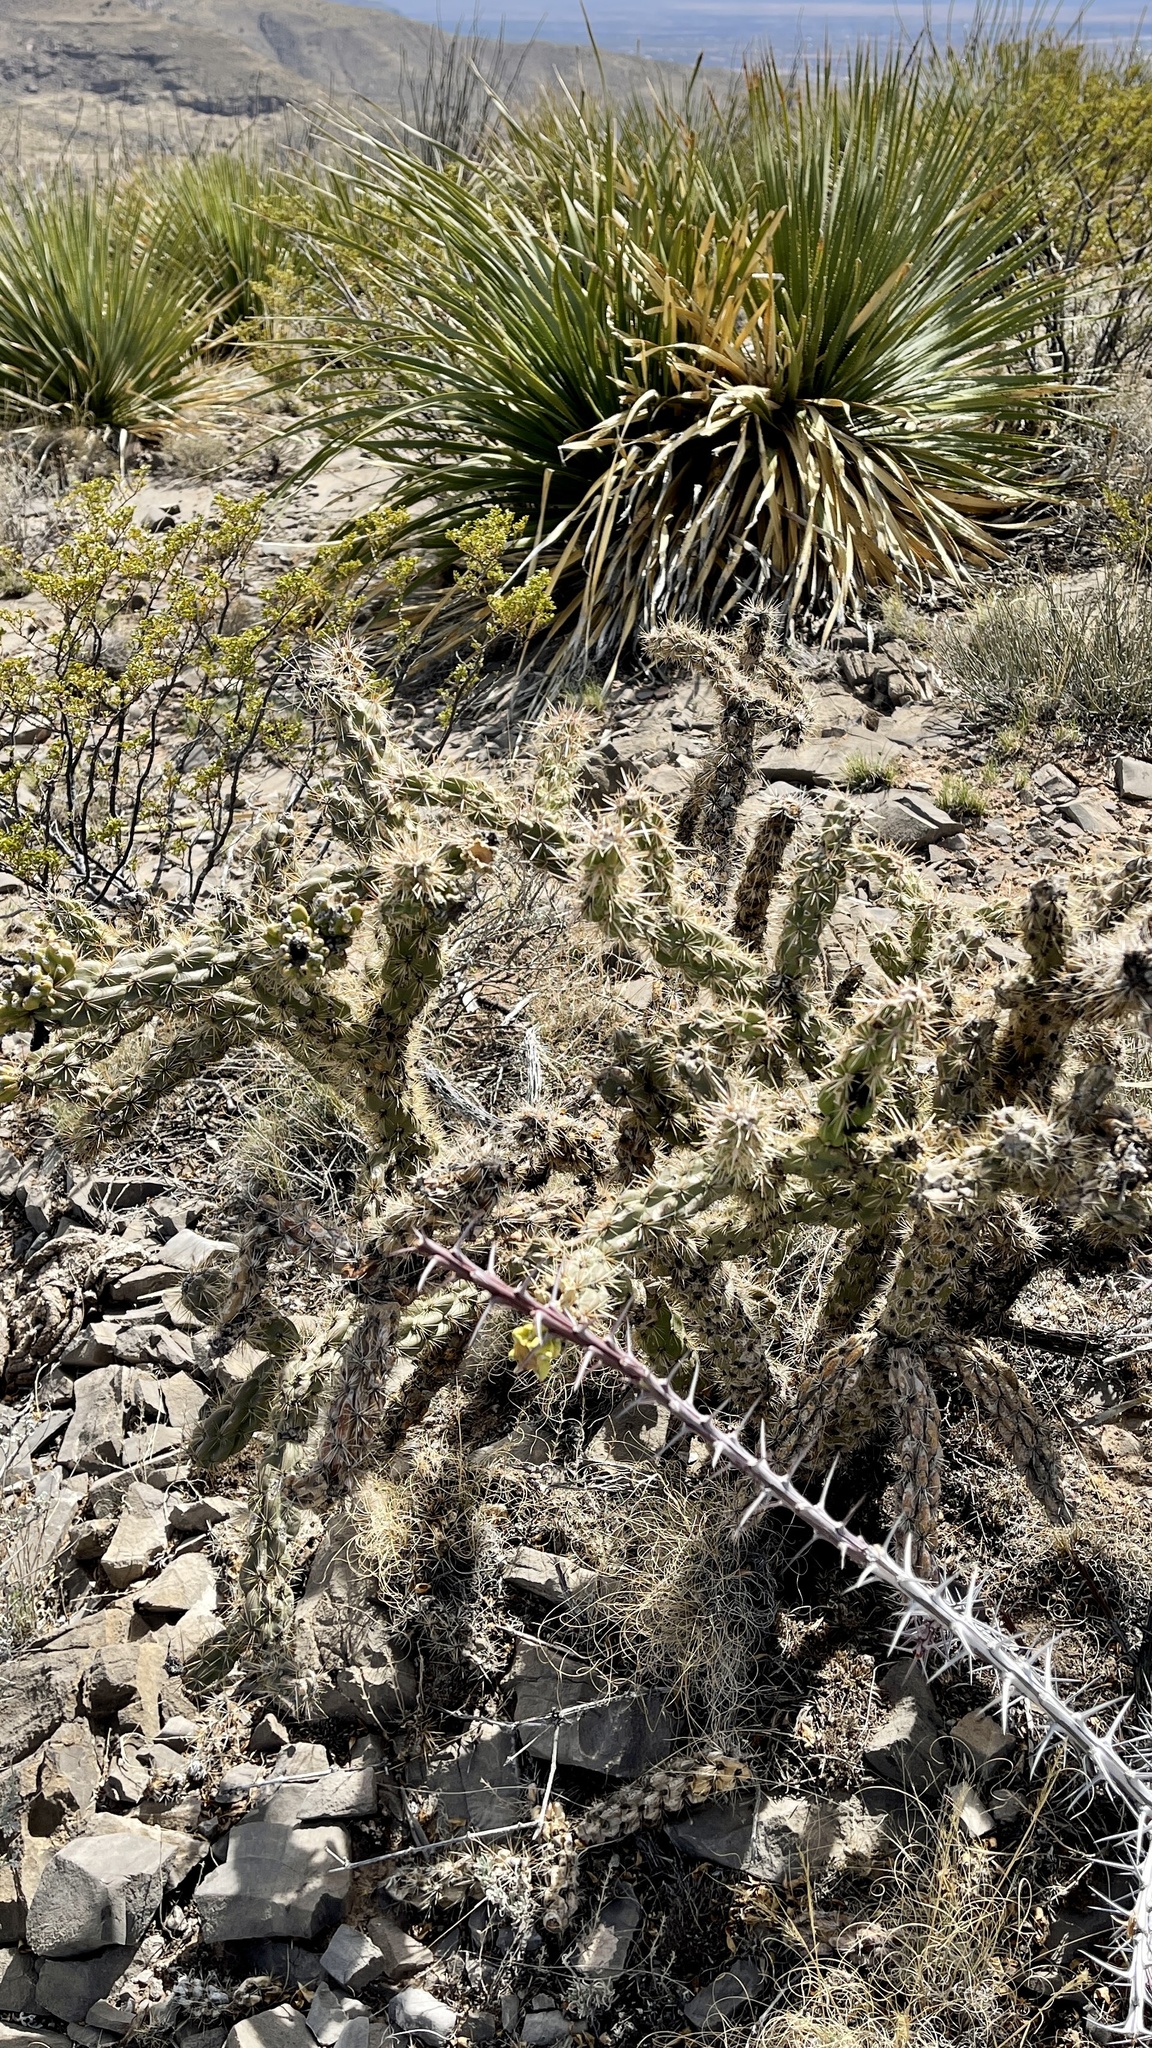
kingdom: Plantae
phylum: Tracheophyta
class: Magnoliopsida
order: Caryophyllales
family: Cactaceae
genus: Cylindropuntia
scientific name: Cylindropuntia imbricata
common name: Candelabrum cactus
